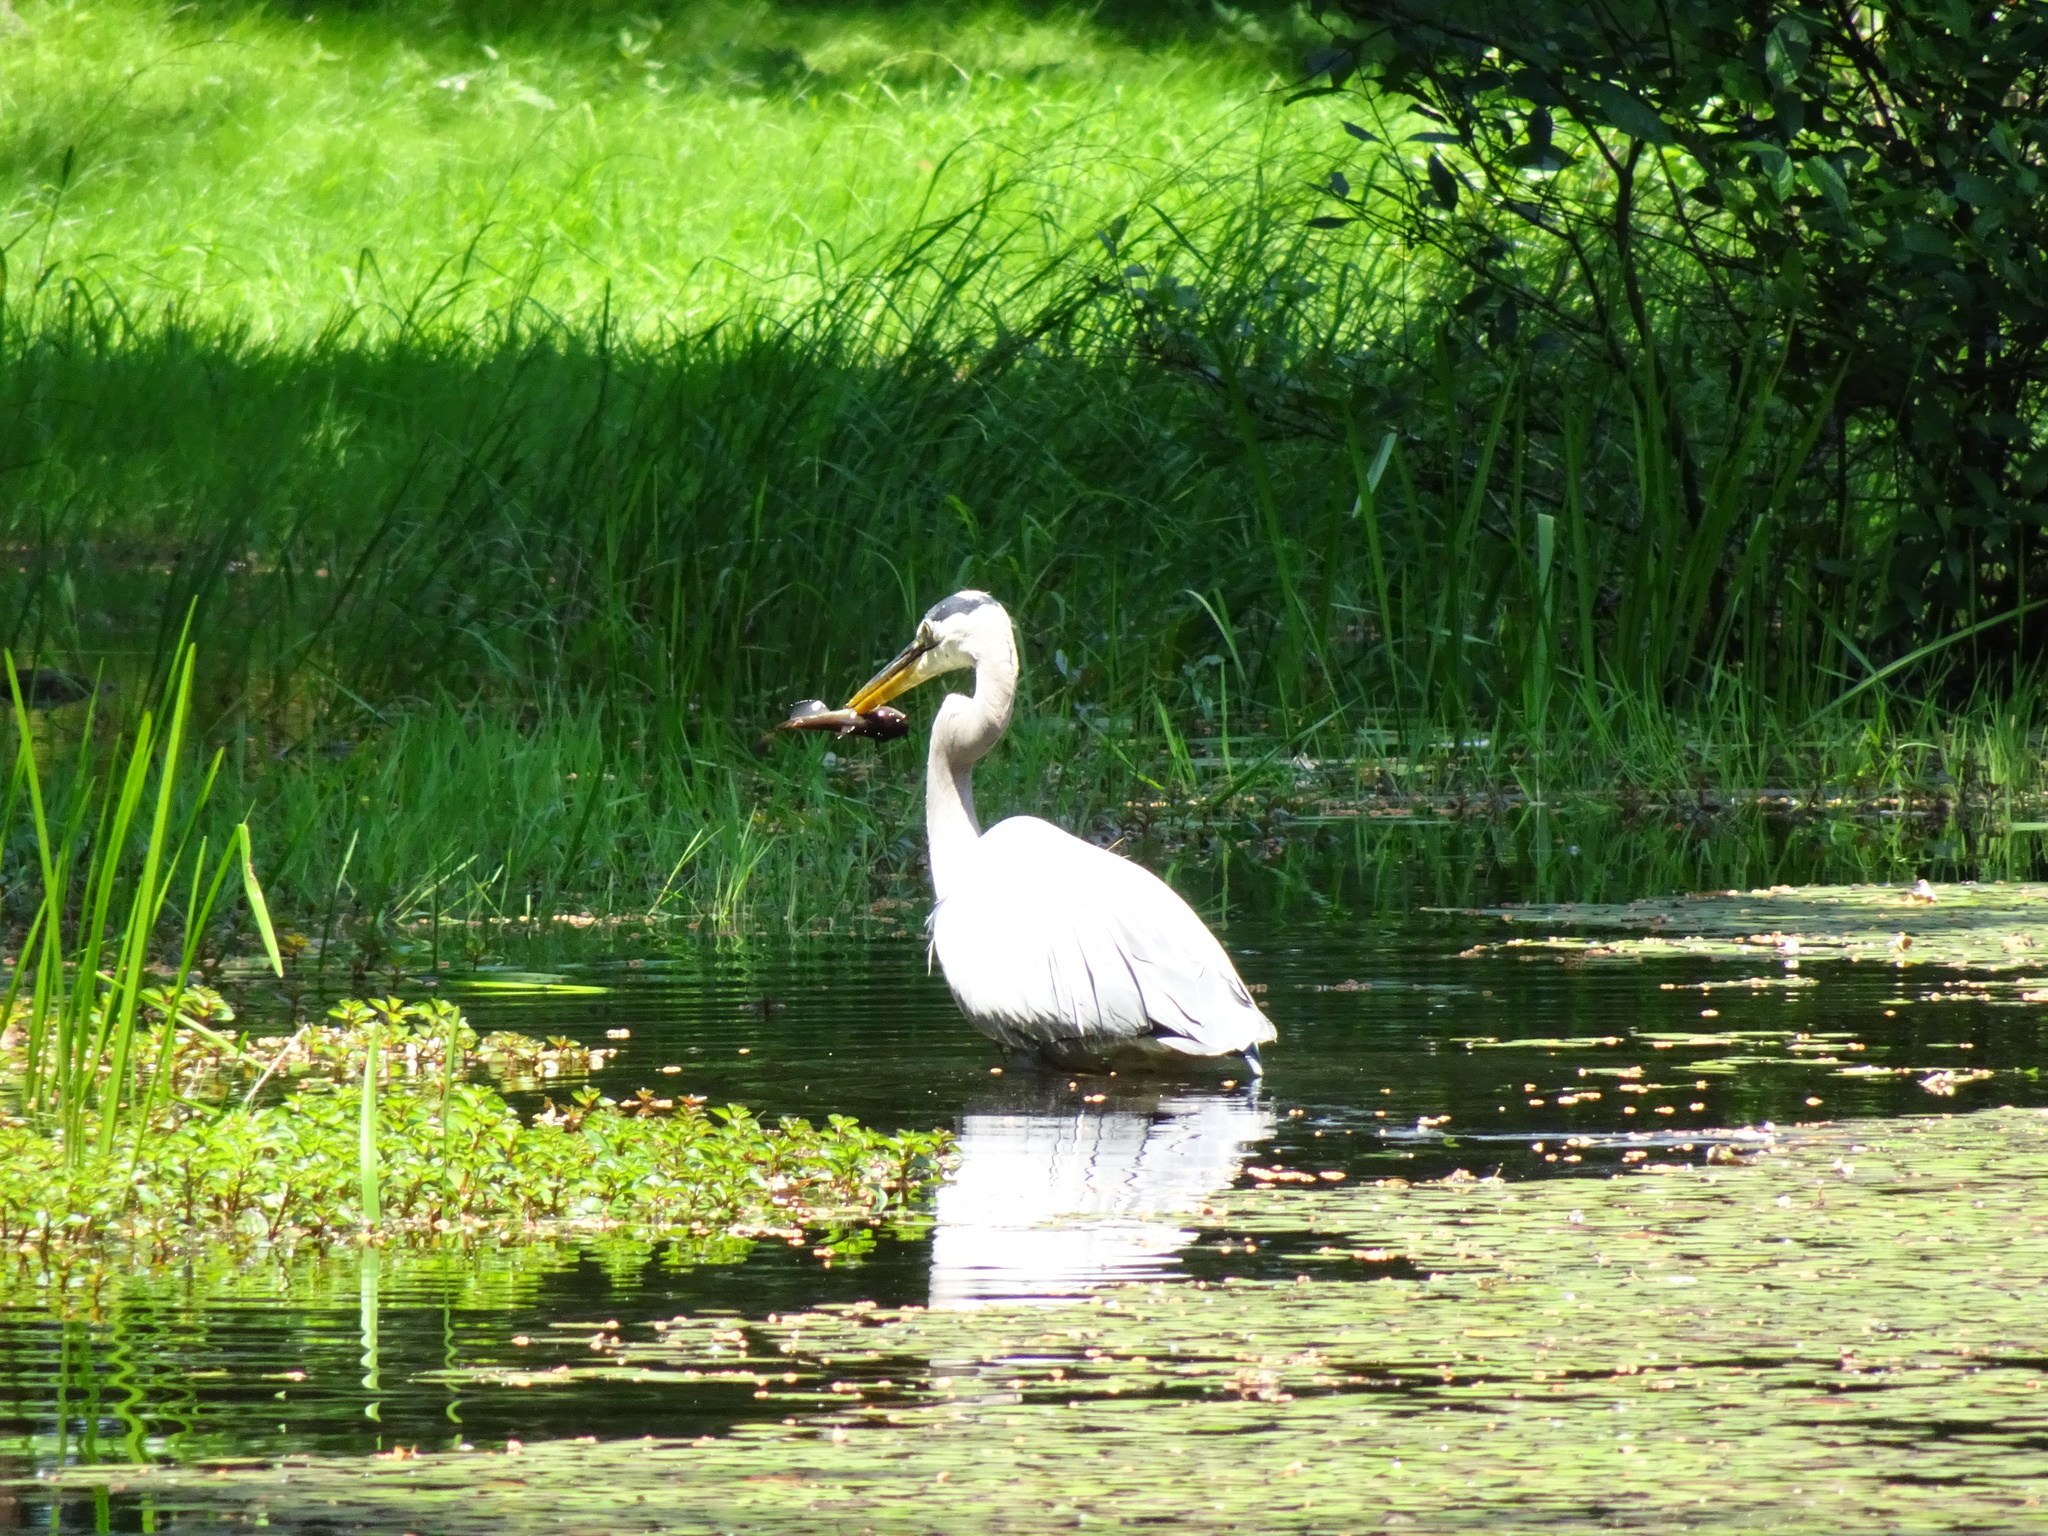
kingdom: Animalia
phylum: Chordata
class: Aves
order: Pelecaniformes
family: Ardeidae
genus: Ardea
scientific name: Ardea herodias
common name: Great blue heron
